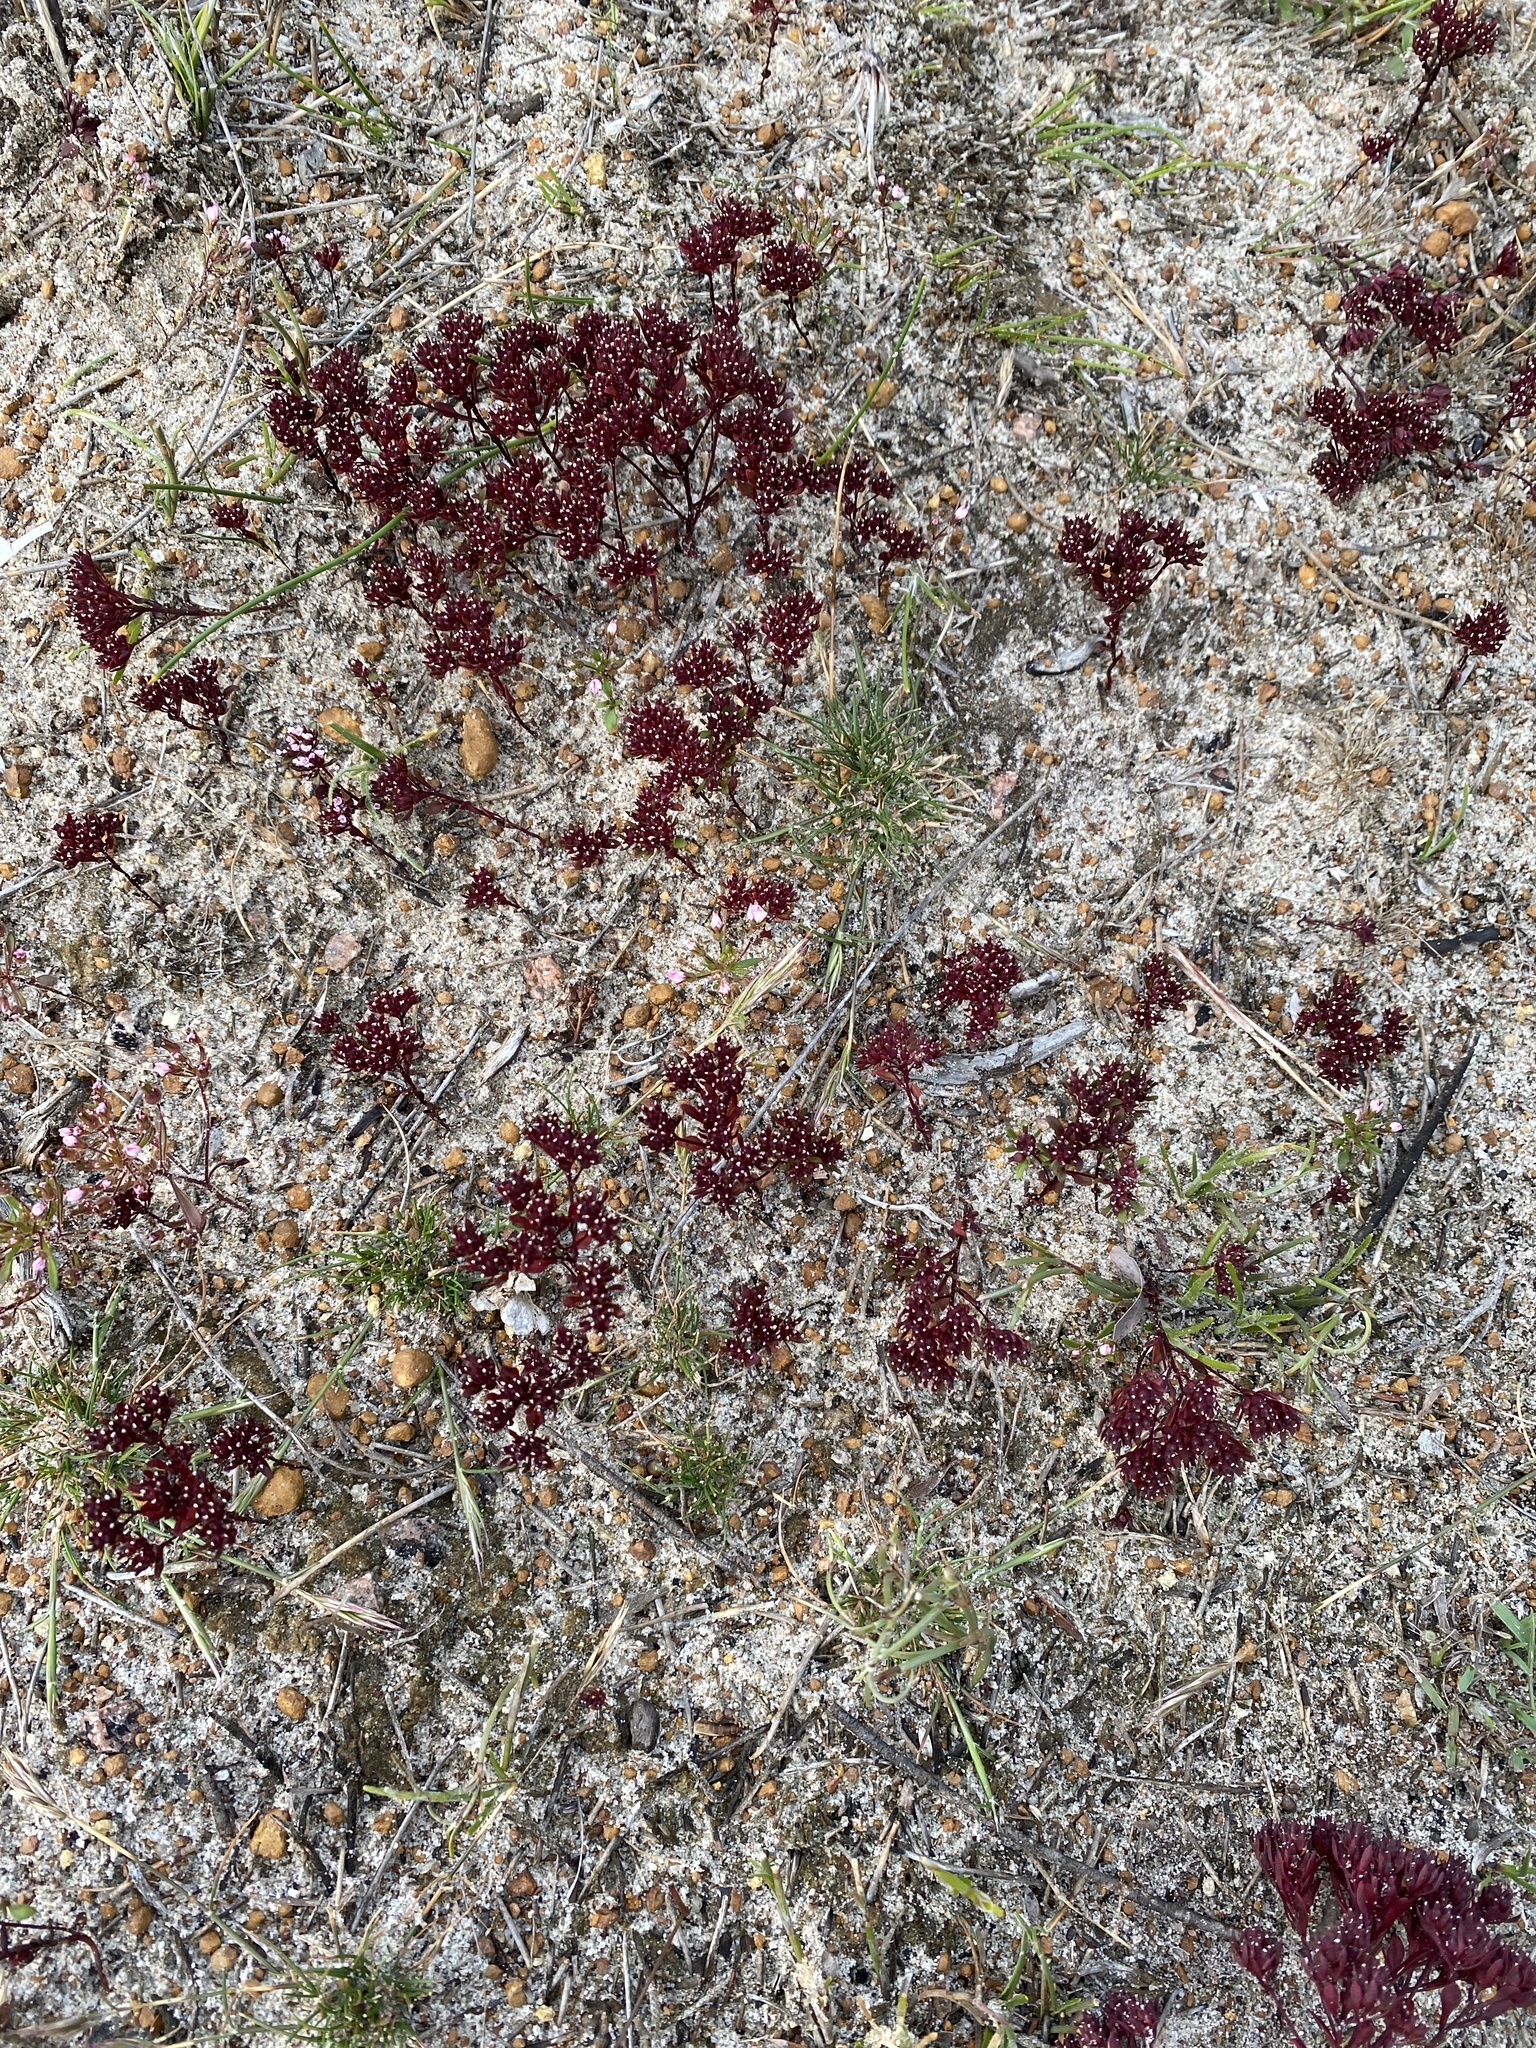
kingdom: Plantae
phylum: Tracheophyta
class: Magnoliopsida
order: Asterales
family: Stylidiaceae
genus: Levenhookia
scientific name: Levenhookia pusilla
